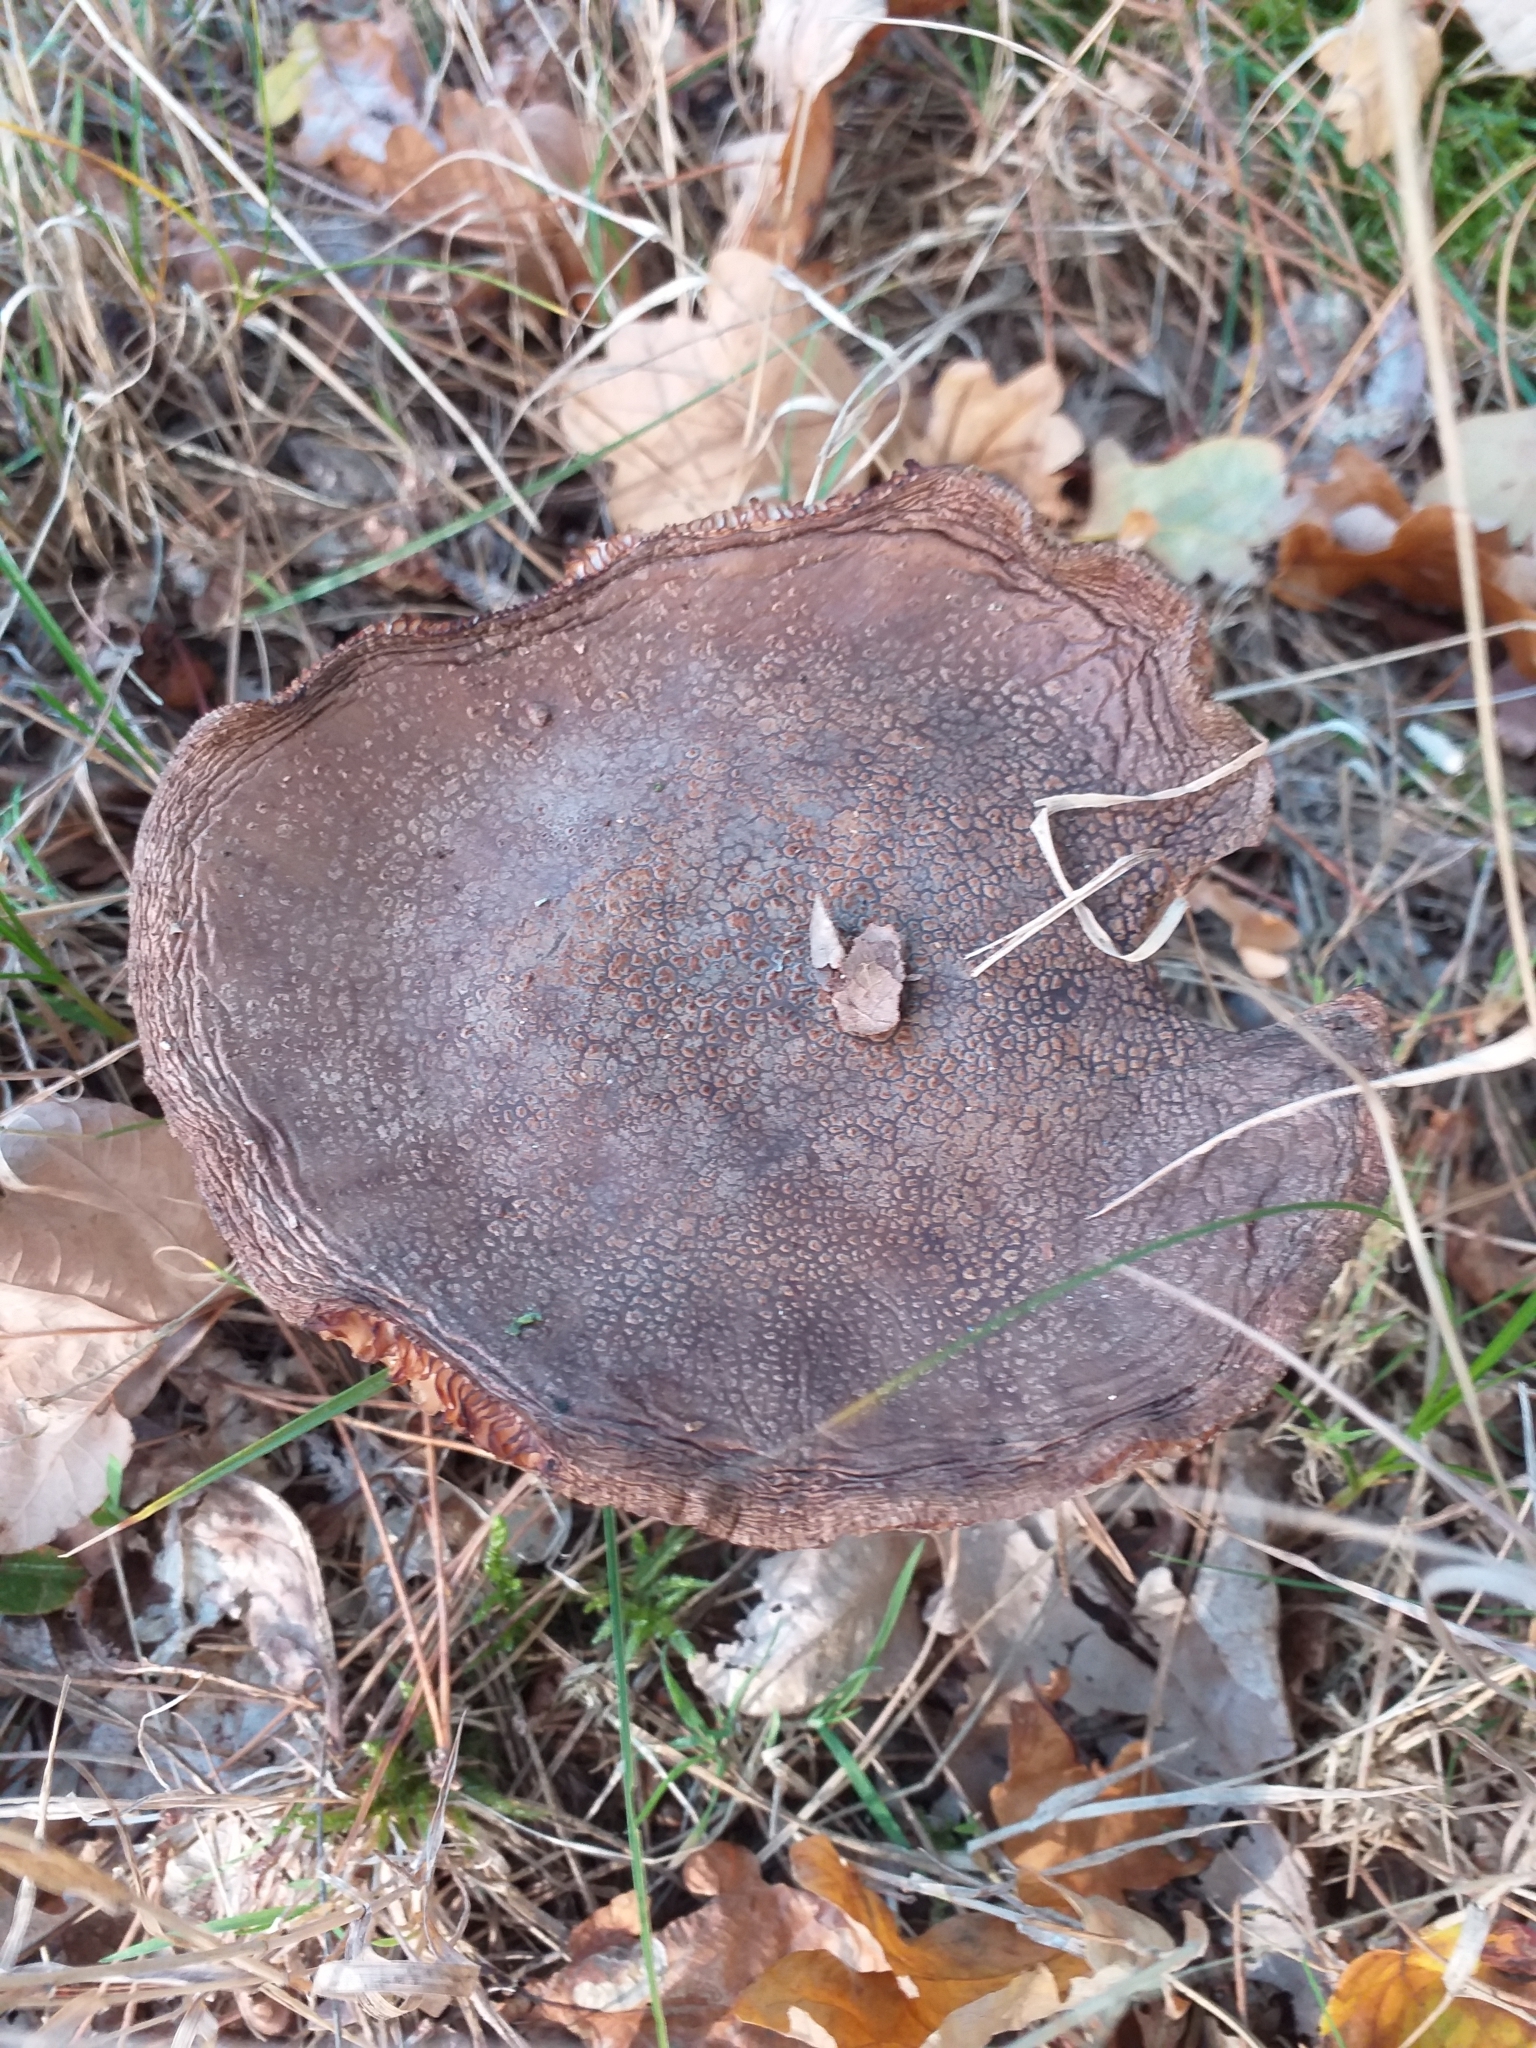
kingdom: Fungi
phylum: Basidiomycota
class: Agaricomycetes
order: Agaricales
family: Amanitaceae
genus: Amanita
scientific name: Amanita rubescens
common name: Blusher
